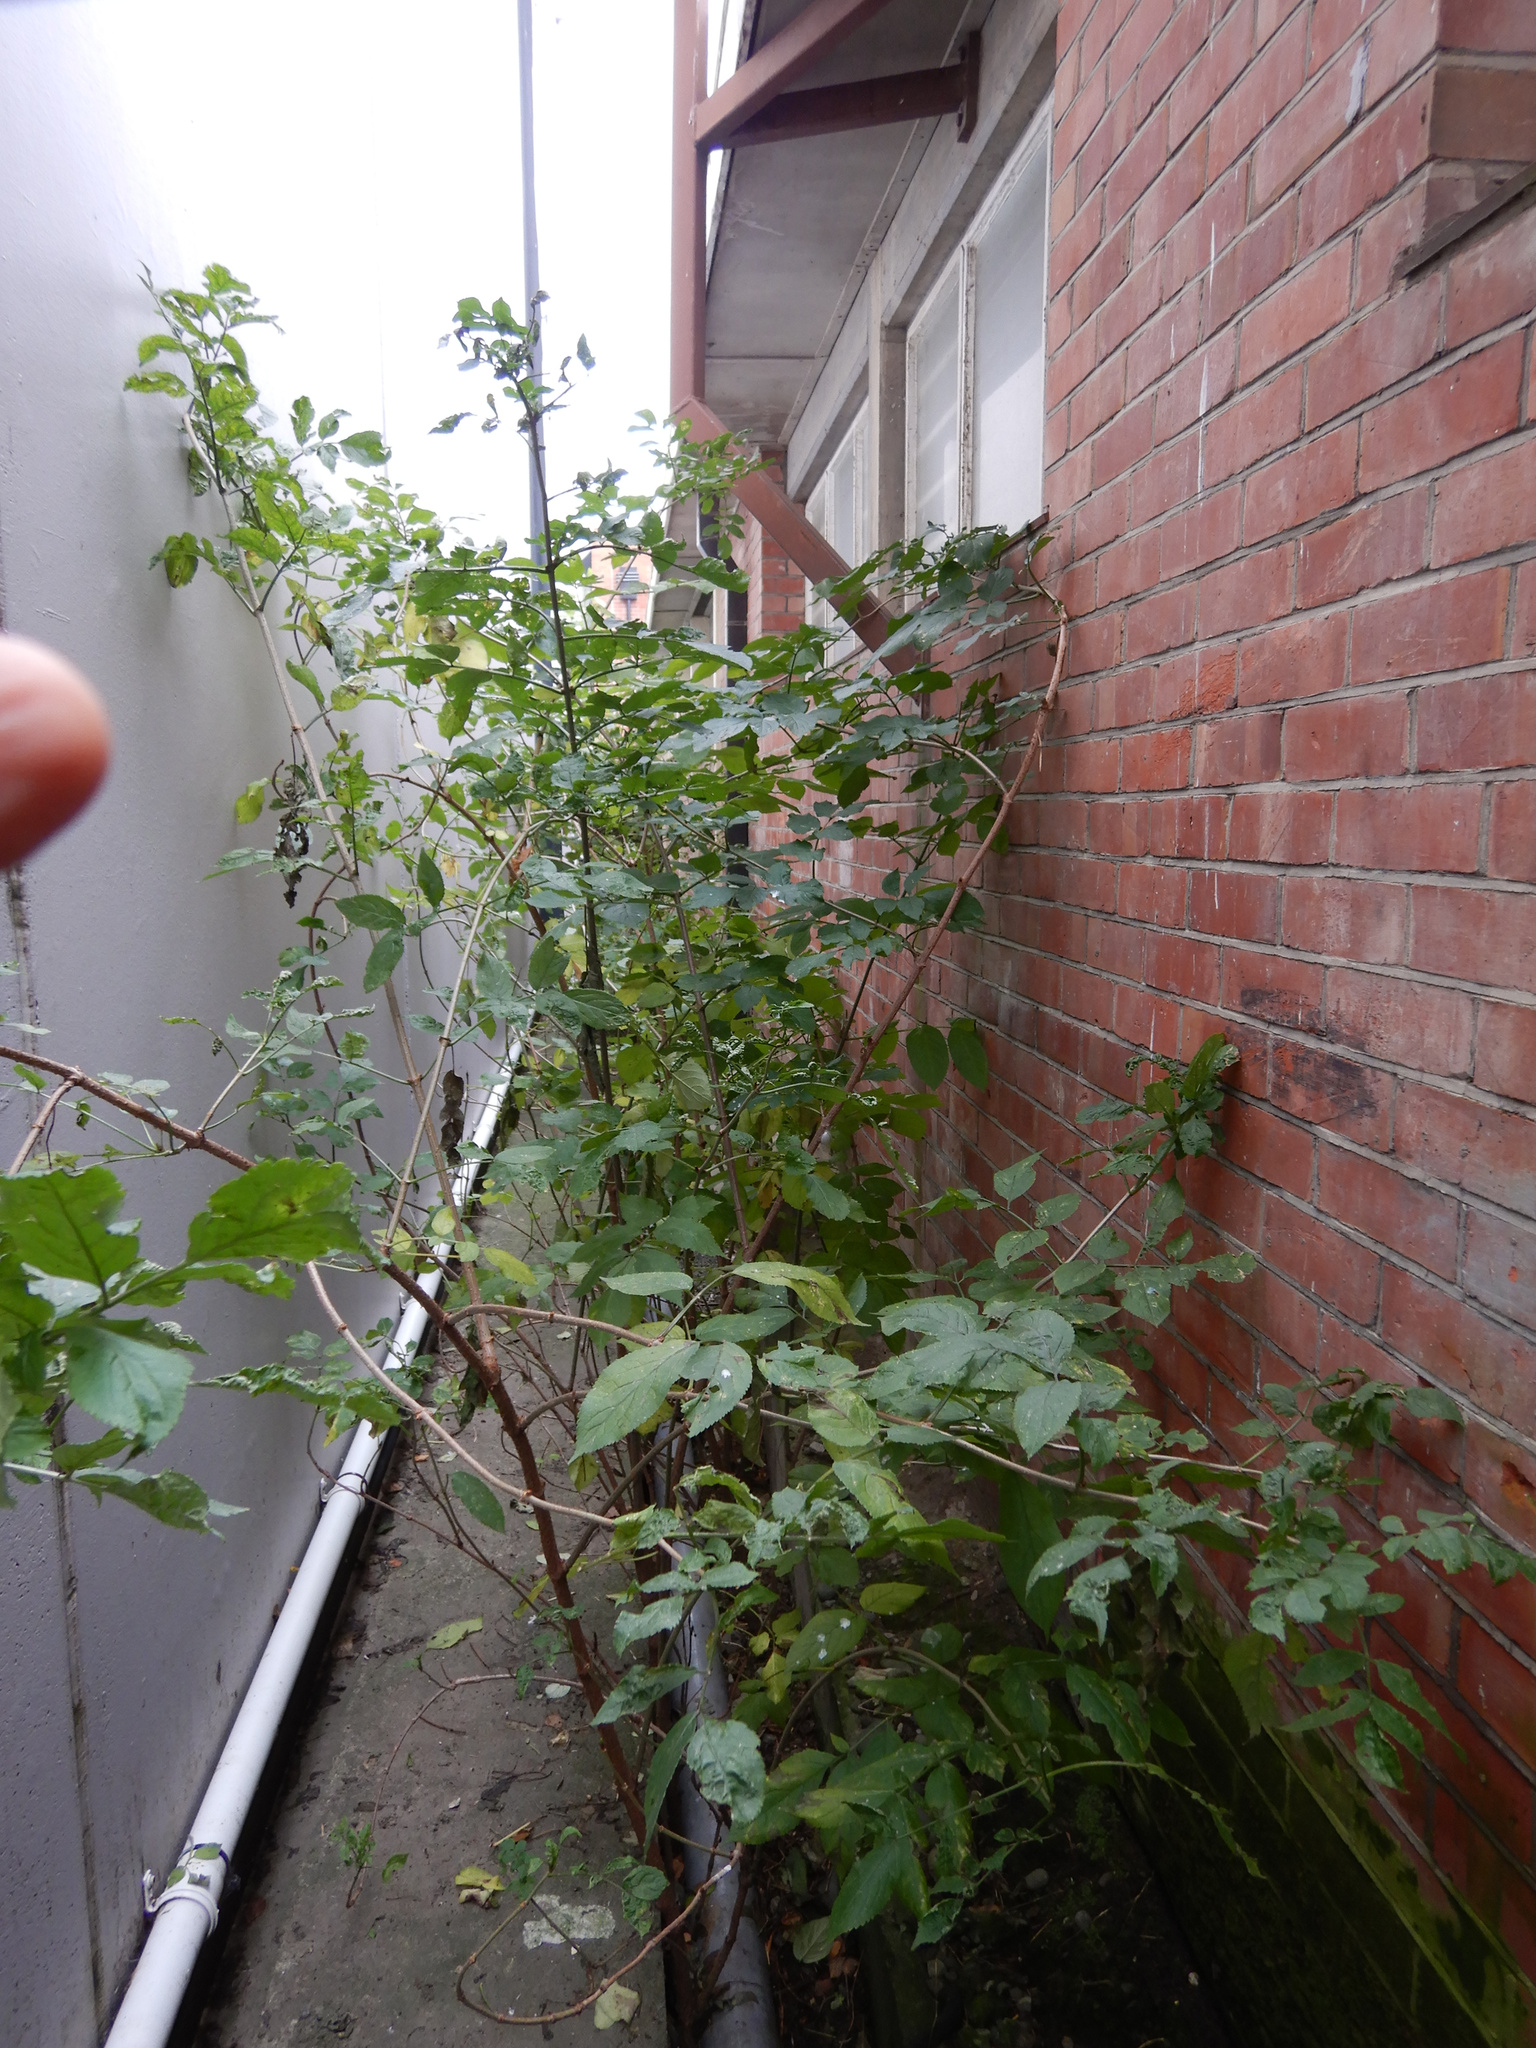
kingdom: Plantae
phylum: Tracheophyta
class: Magnoliopsida
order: Dipsacales
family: Viburnaceae
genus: Sambucus
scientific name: Sambucus nigra
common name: Elder
